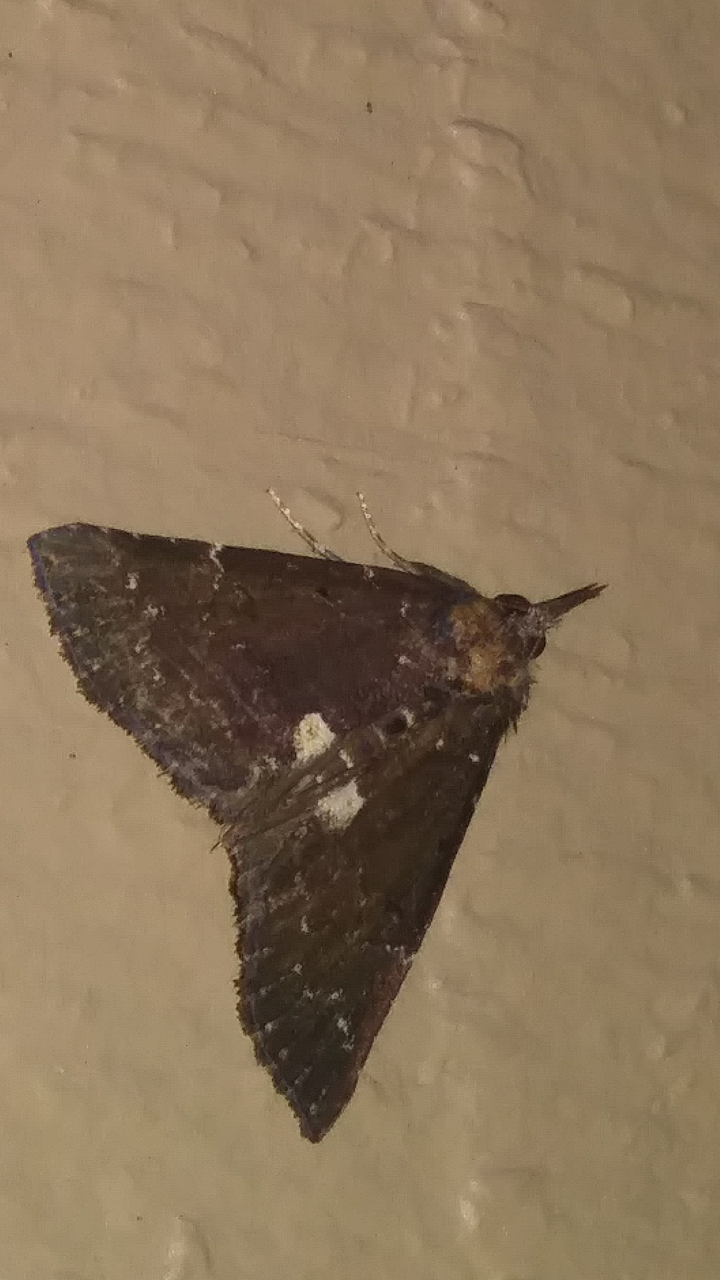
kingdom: Animalia
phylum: Arthropoda
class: Insecta
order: Lepidoptera
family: Erebidae
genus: Hypena
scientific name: Hypena bijugalis
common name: Dimorphic bomolocha moth
